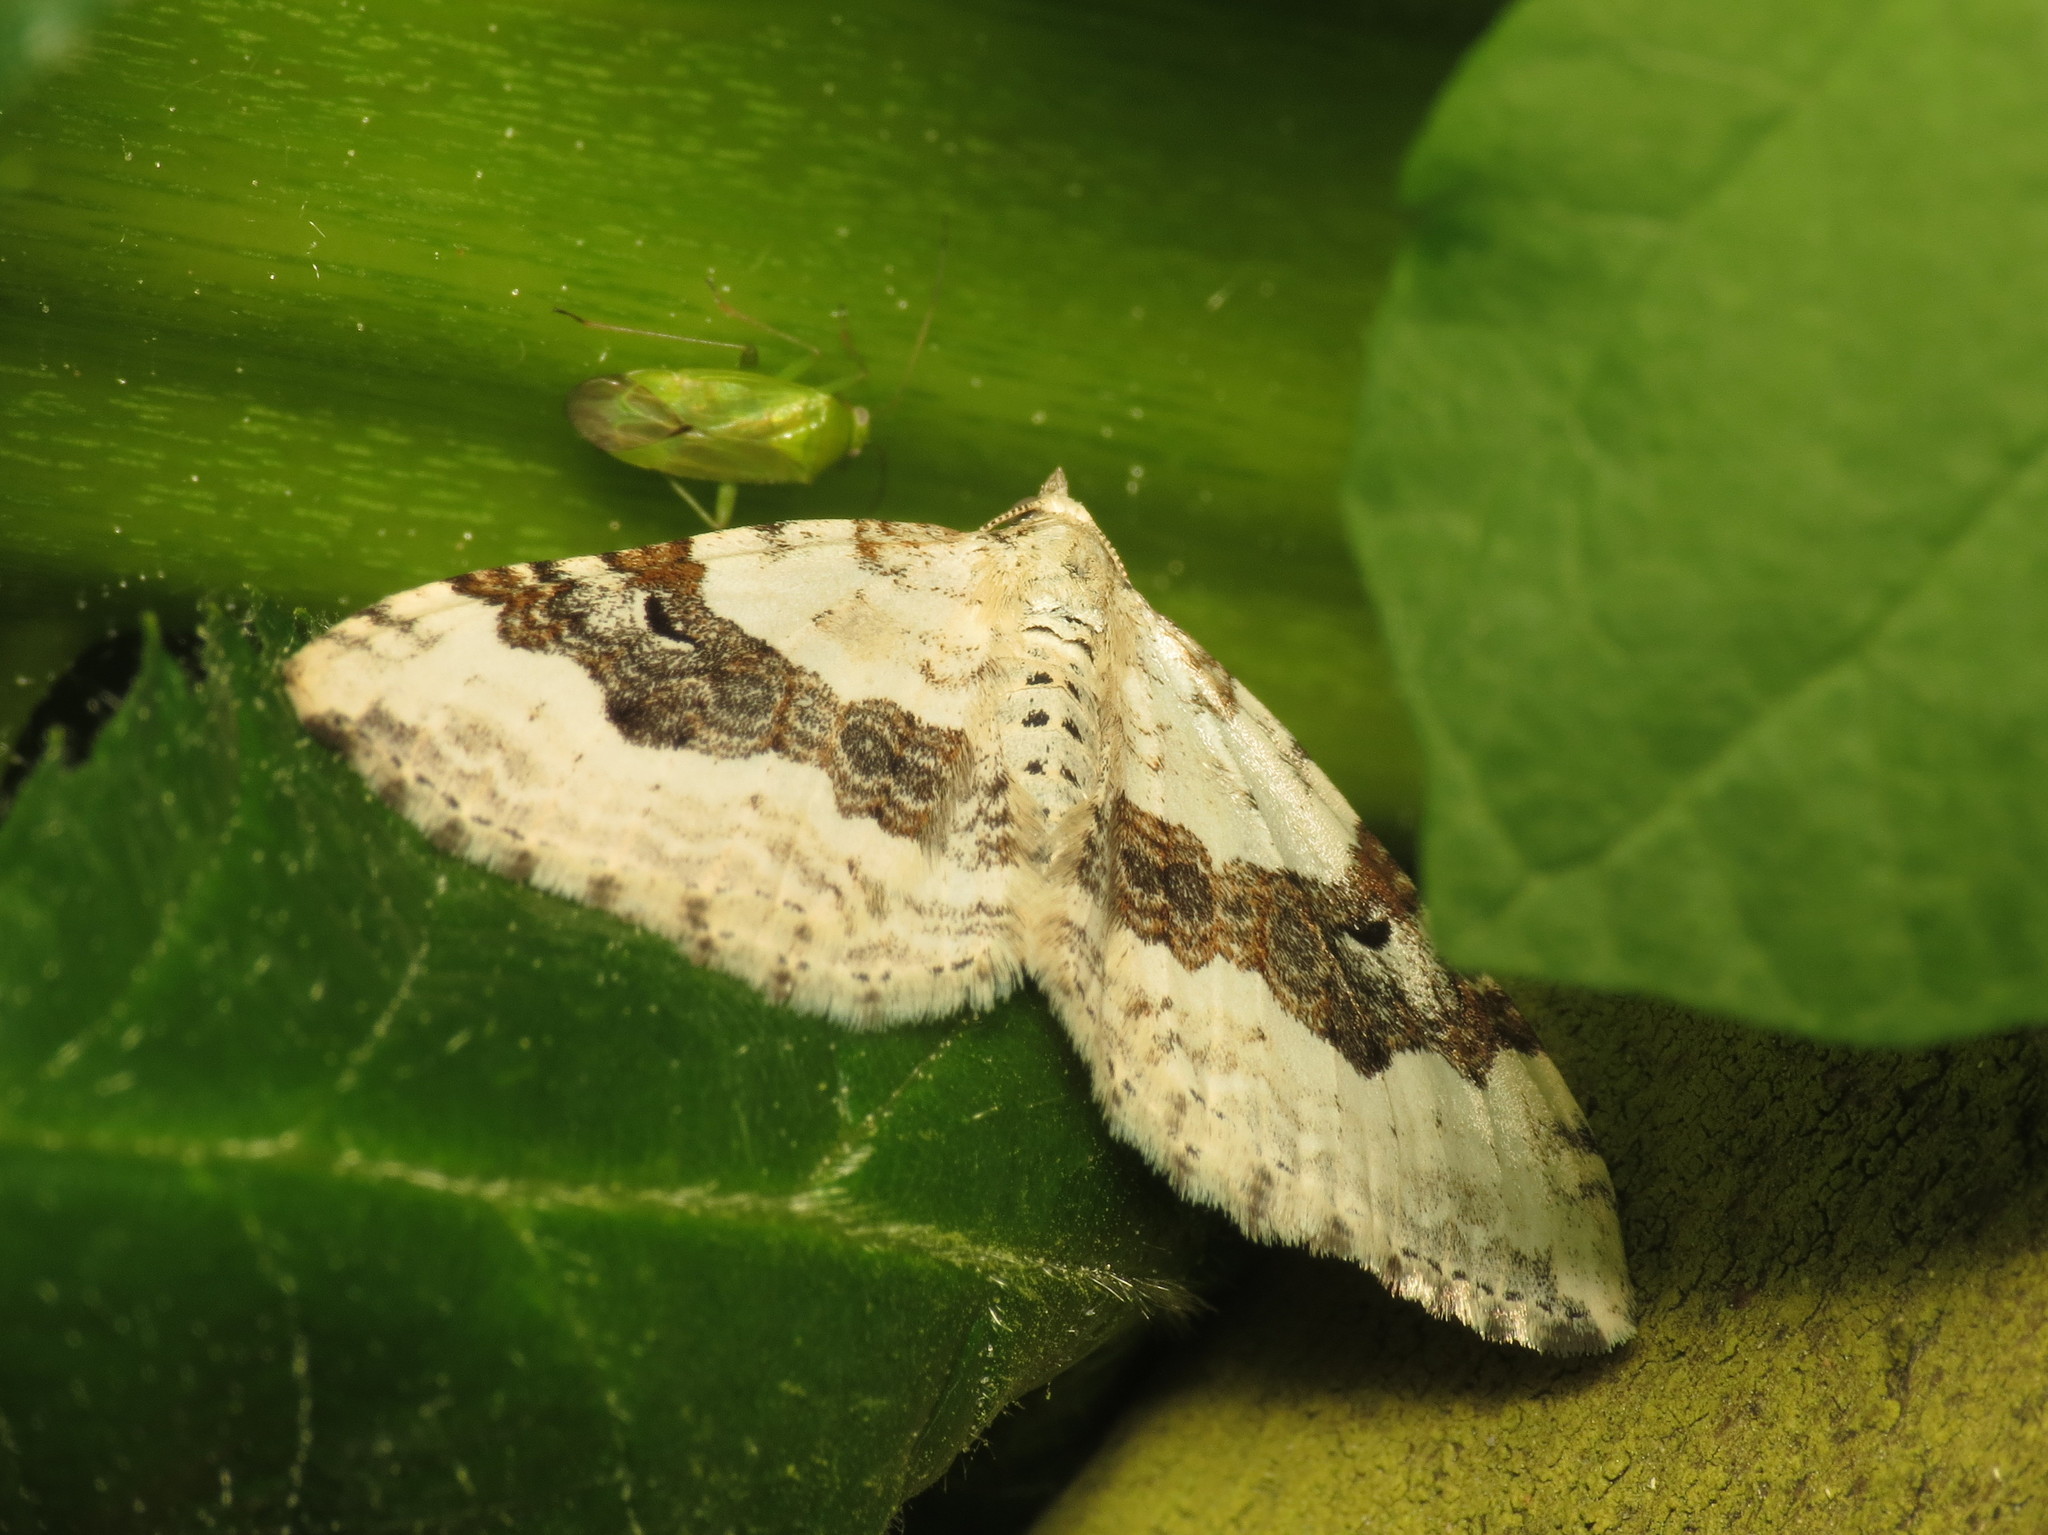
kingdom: Animalia
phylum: Arthropoda
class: Insecta
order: Lepidoptera
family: Geometridae
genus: Xanthorhoe
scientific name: Xanthorhoe montanata
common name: Silver-ground carpet
